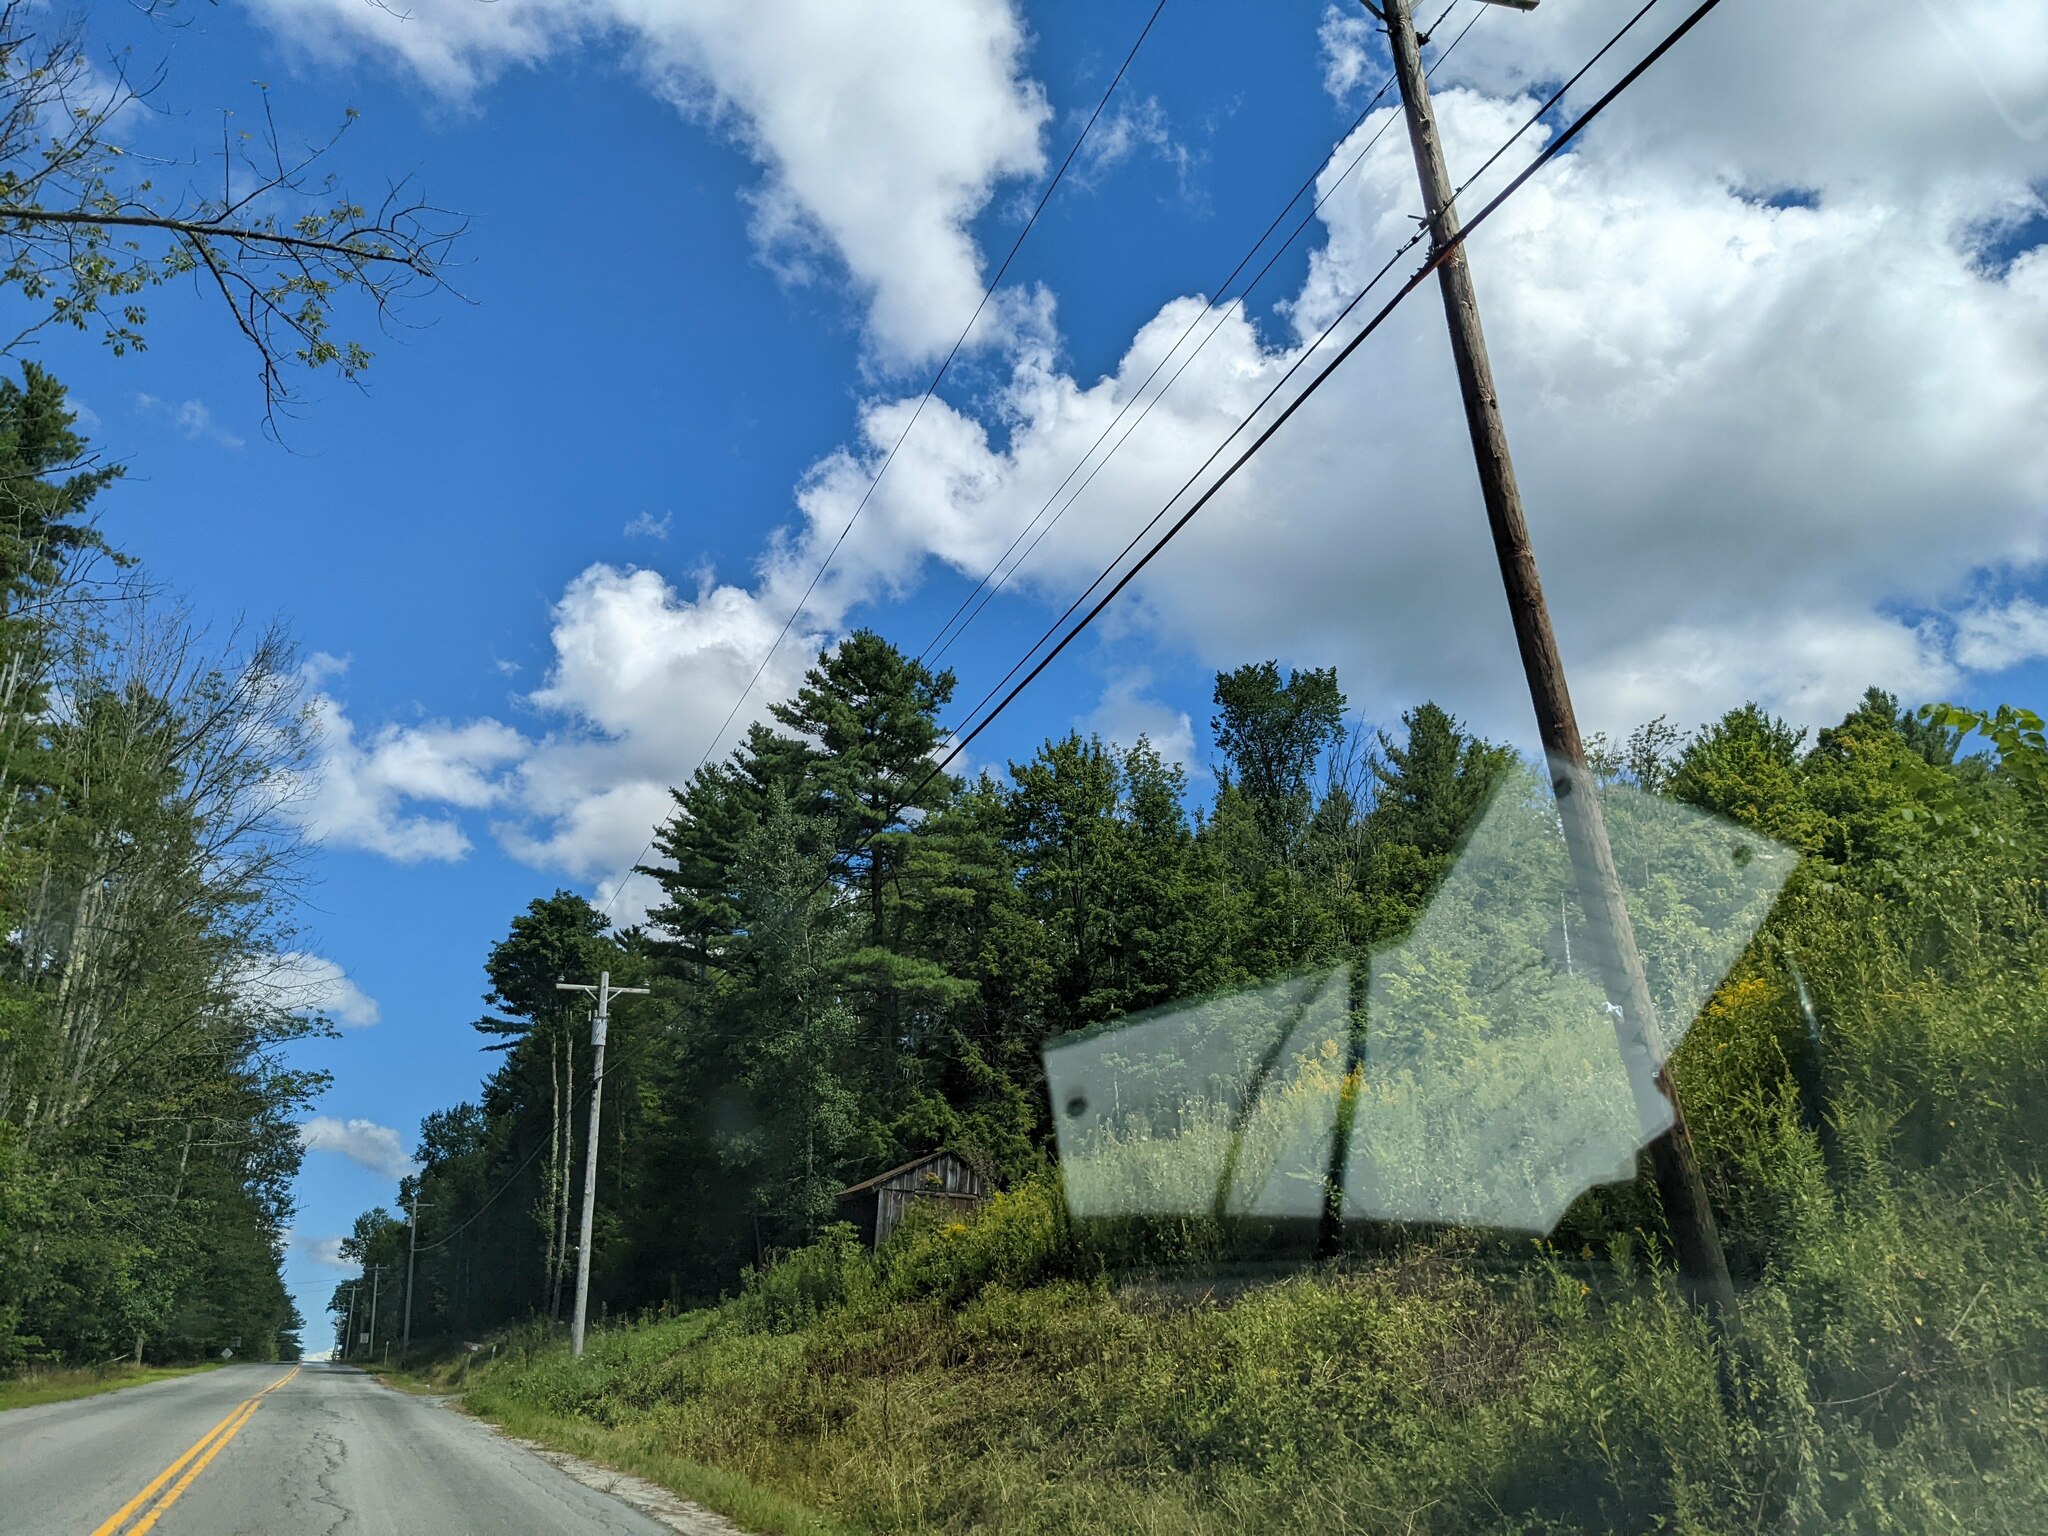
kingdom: Plantae
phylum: Tracheophyta
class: Pinopsida
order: Pinales
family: Pinaceae
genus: Pinus
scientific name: Pinus strobus
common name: Weymouth pine
